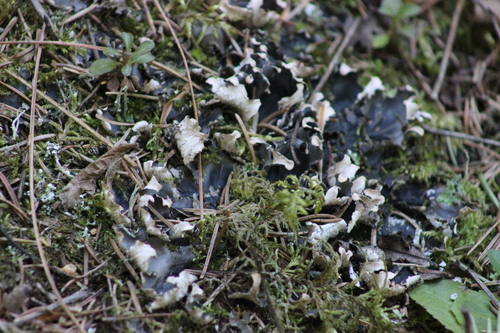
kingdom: Fungi
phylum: Ascomycota
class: Lecanoromycetes
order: Peltigerales
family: Peltigeraceae
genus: Peltigera
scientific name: Peltigera
